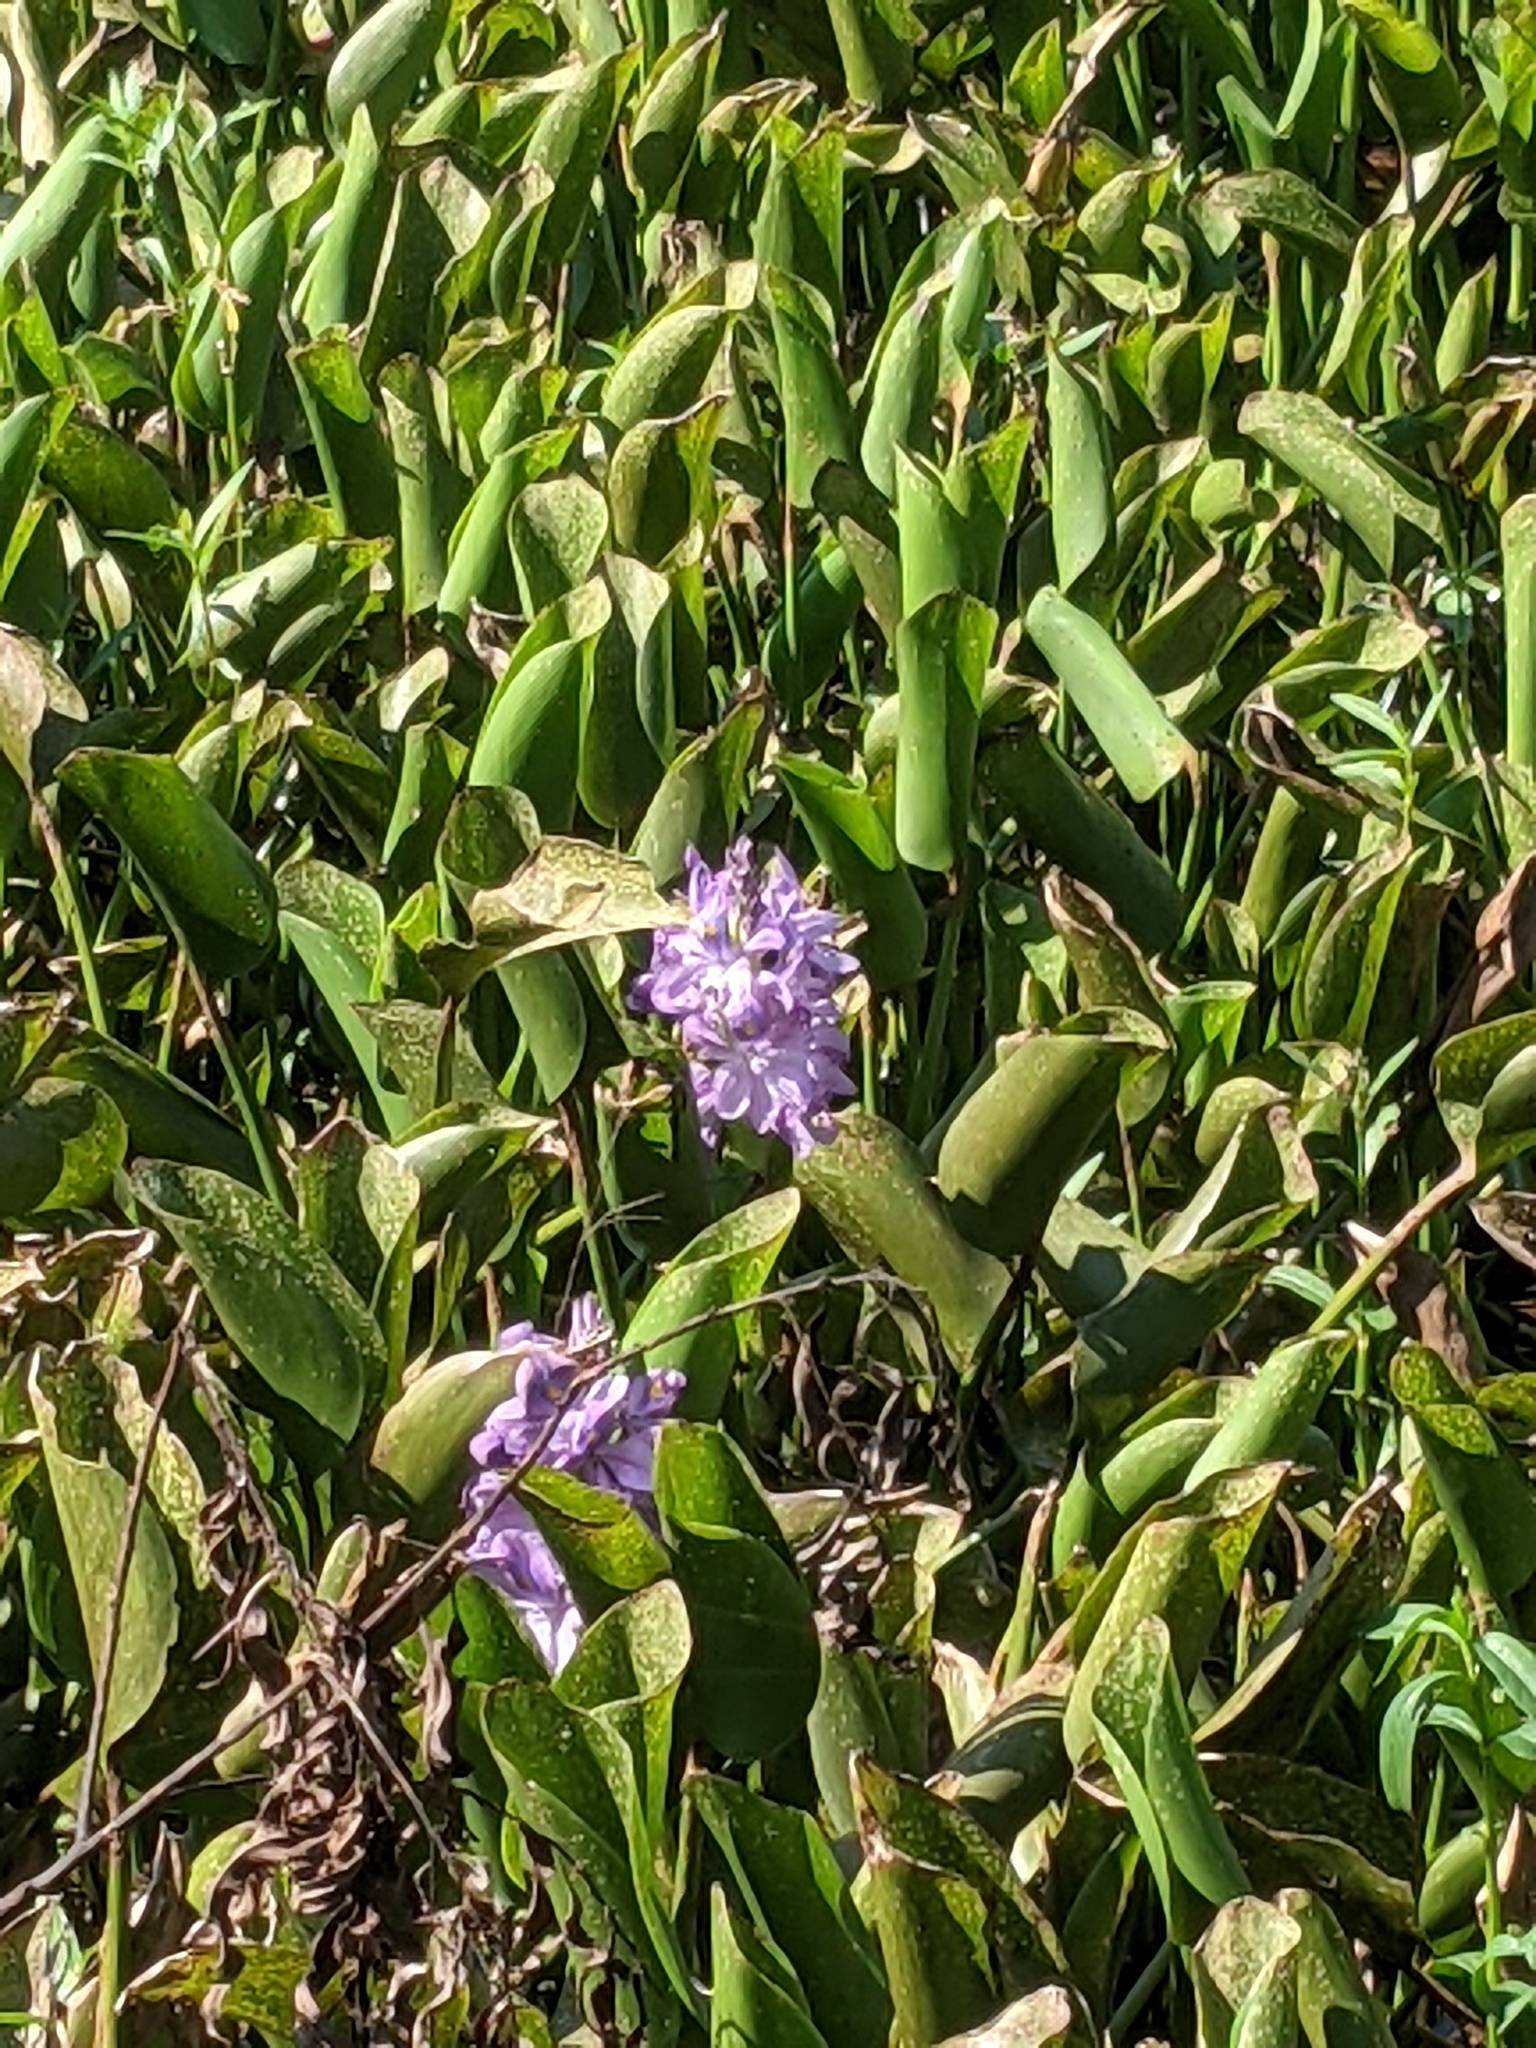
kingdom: Plantae
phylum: Tracheophyta
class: Liliopsida
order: Commelinales
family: Pontederiaceae
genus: Pontederia
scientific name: Pontederia crassipes
